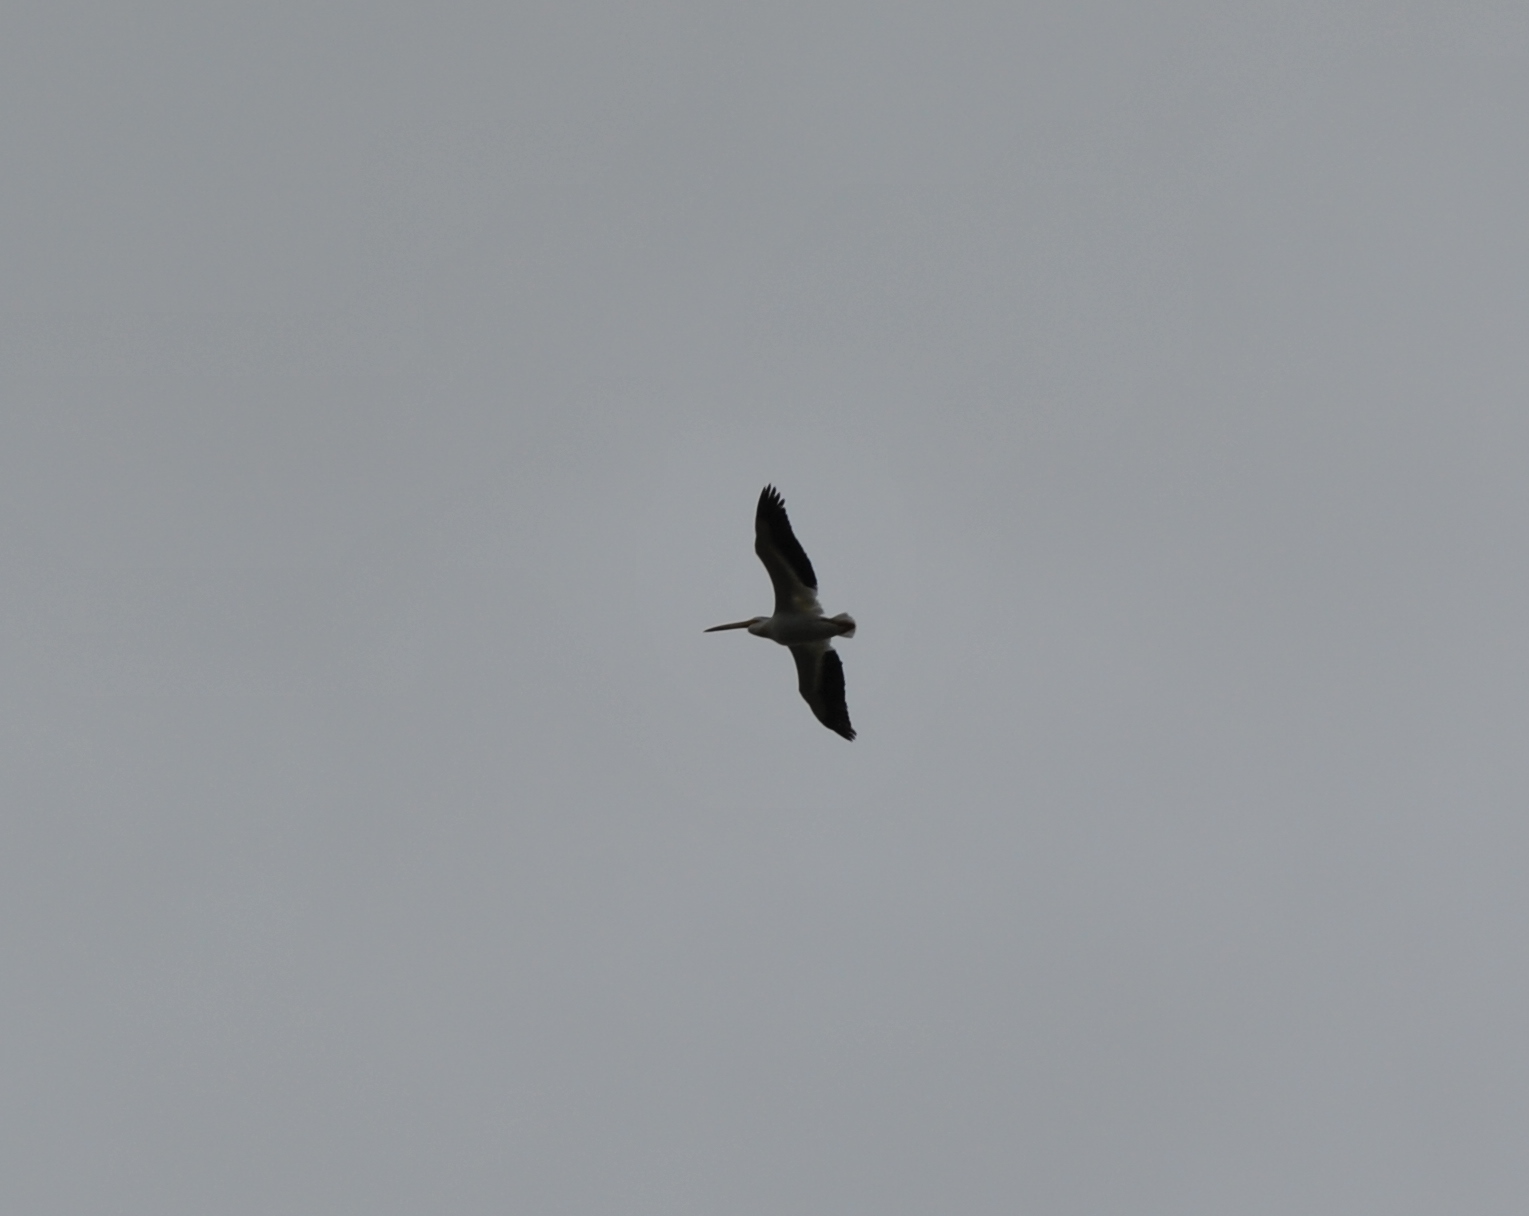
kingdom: Animalia
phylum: Chordata
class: Aves
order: Pelecaniformes
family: Pelecanidae
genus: Pelecanus
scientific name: Pelecanus erythrorhynchos
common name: American white pelican
